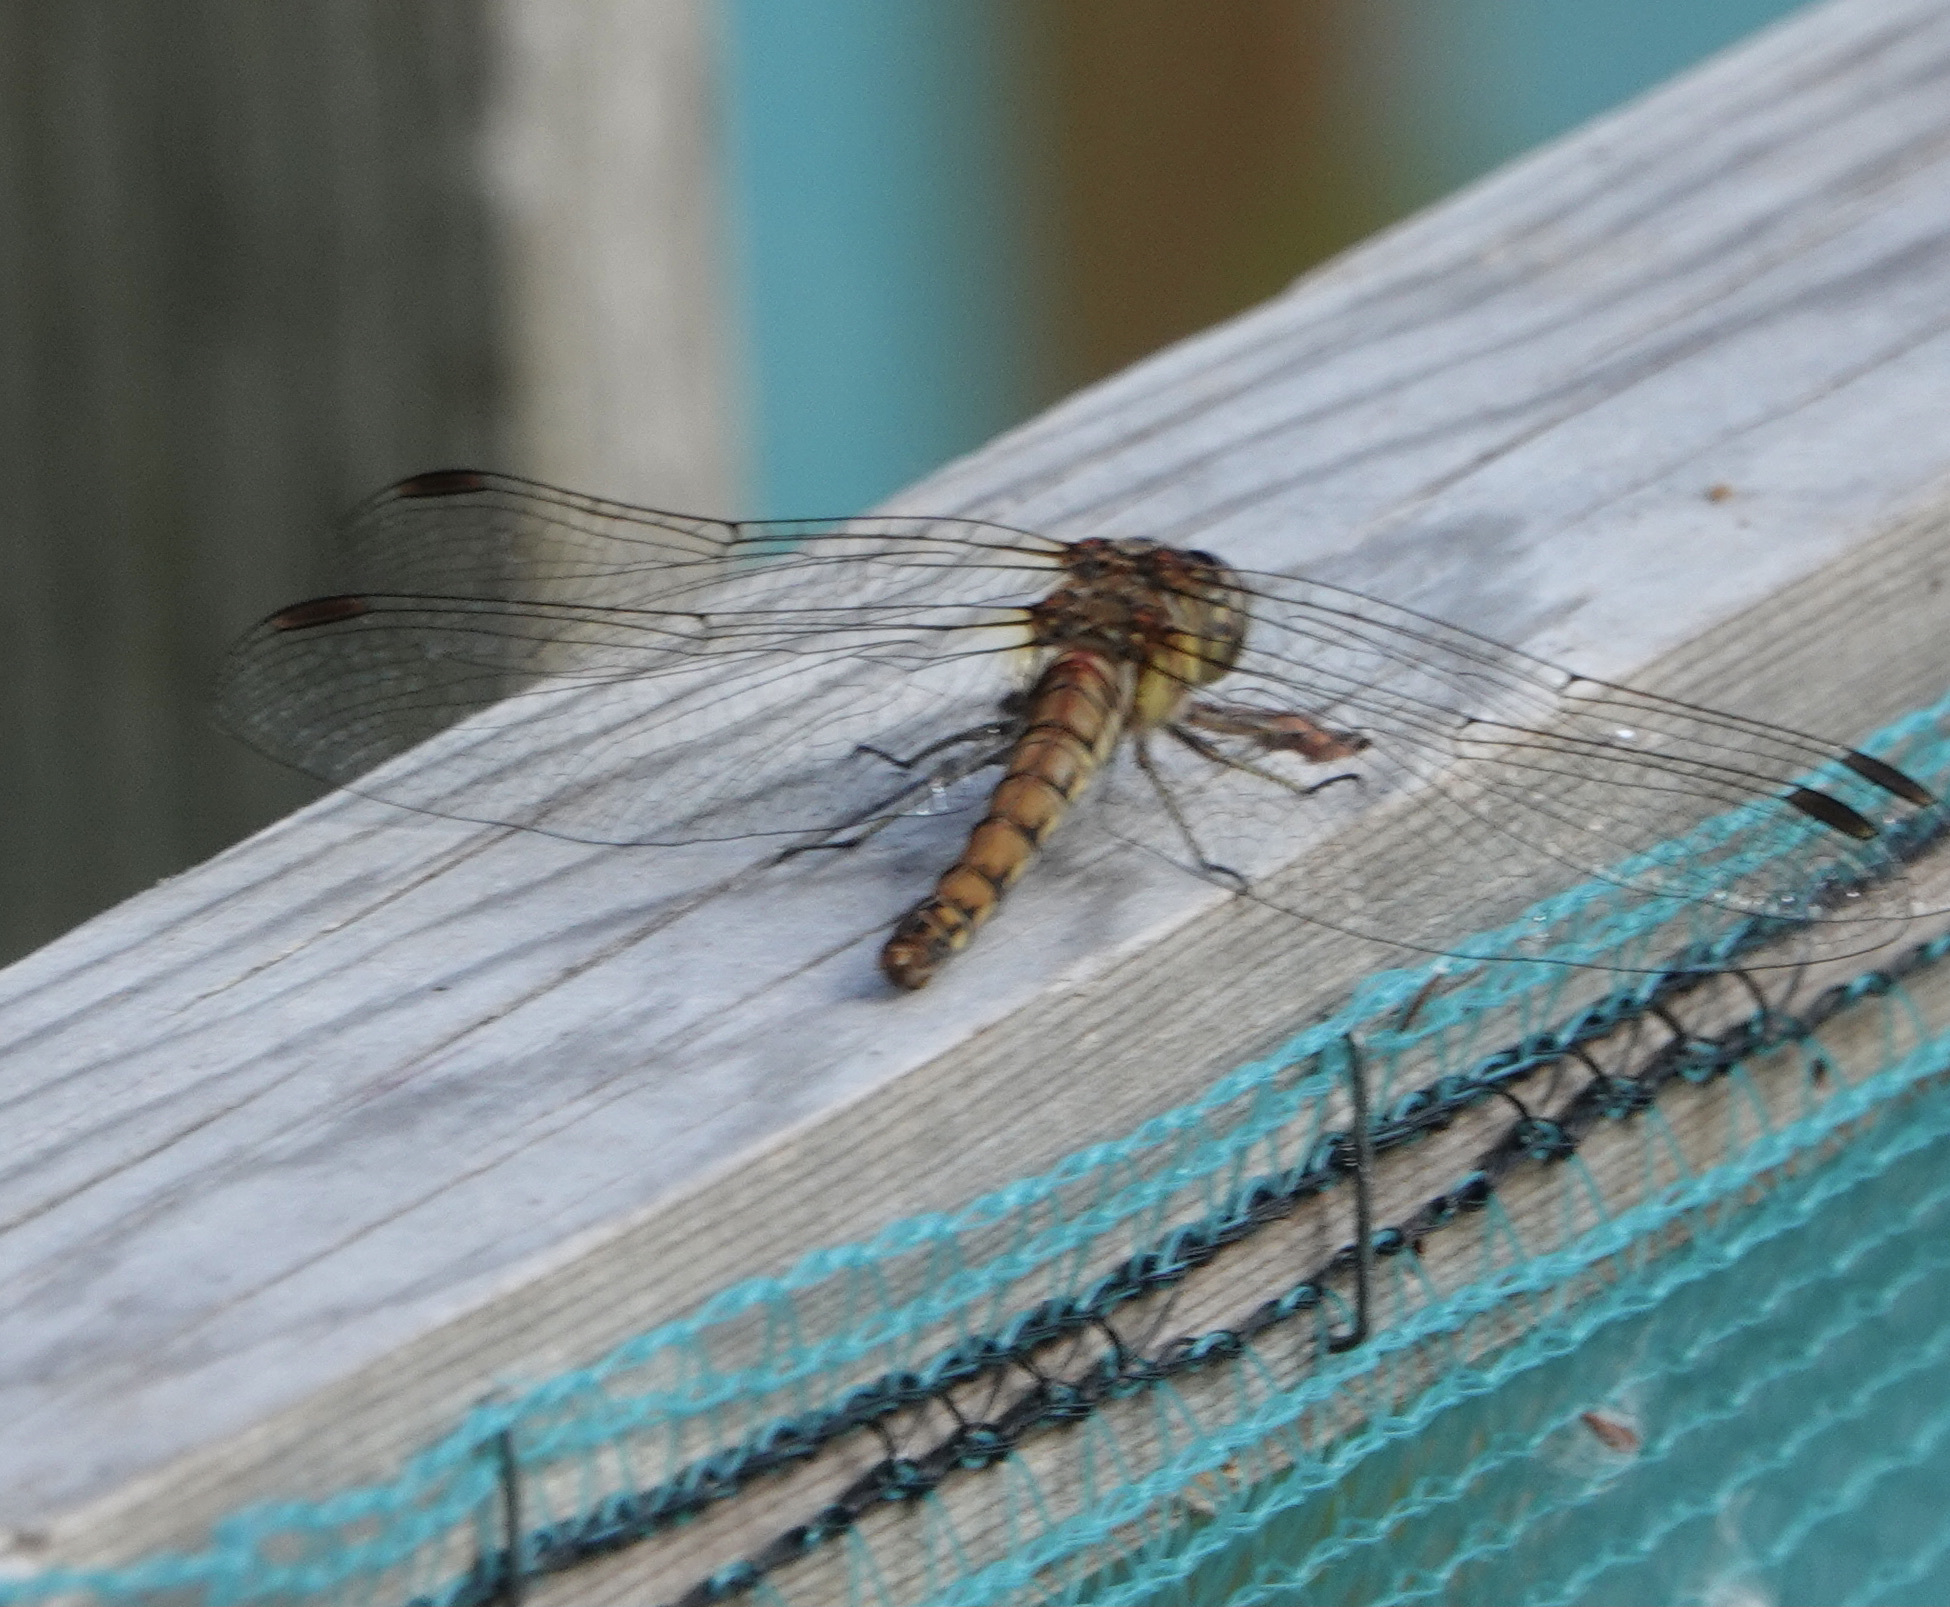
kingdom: Animalia
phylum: Arthropoda
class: Insecta
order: Odonata
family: Libellulidae
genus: Sympetrum
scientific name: Sympetrum striolatum
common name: Common darter
